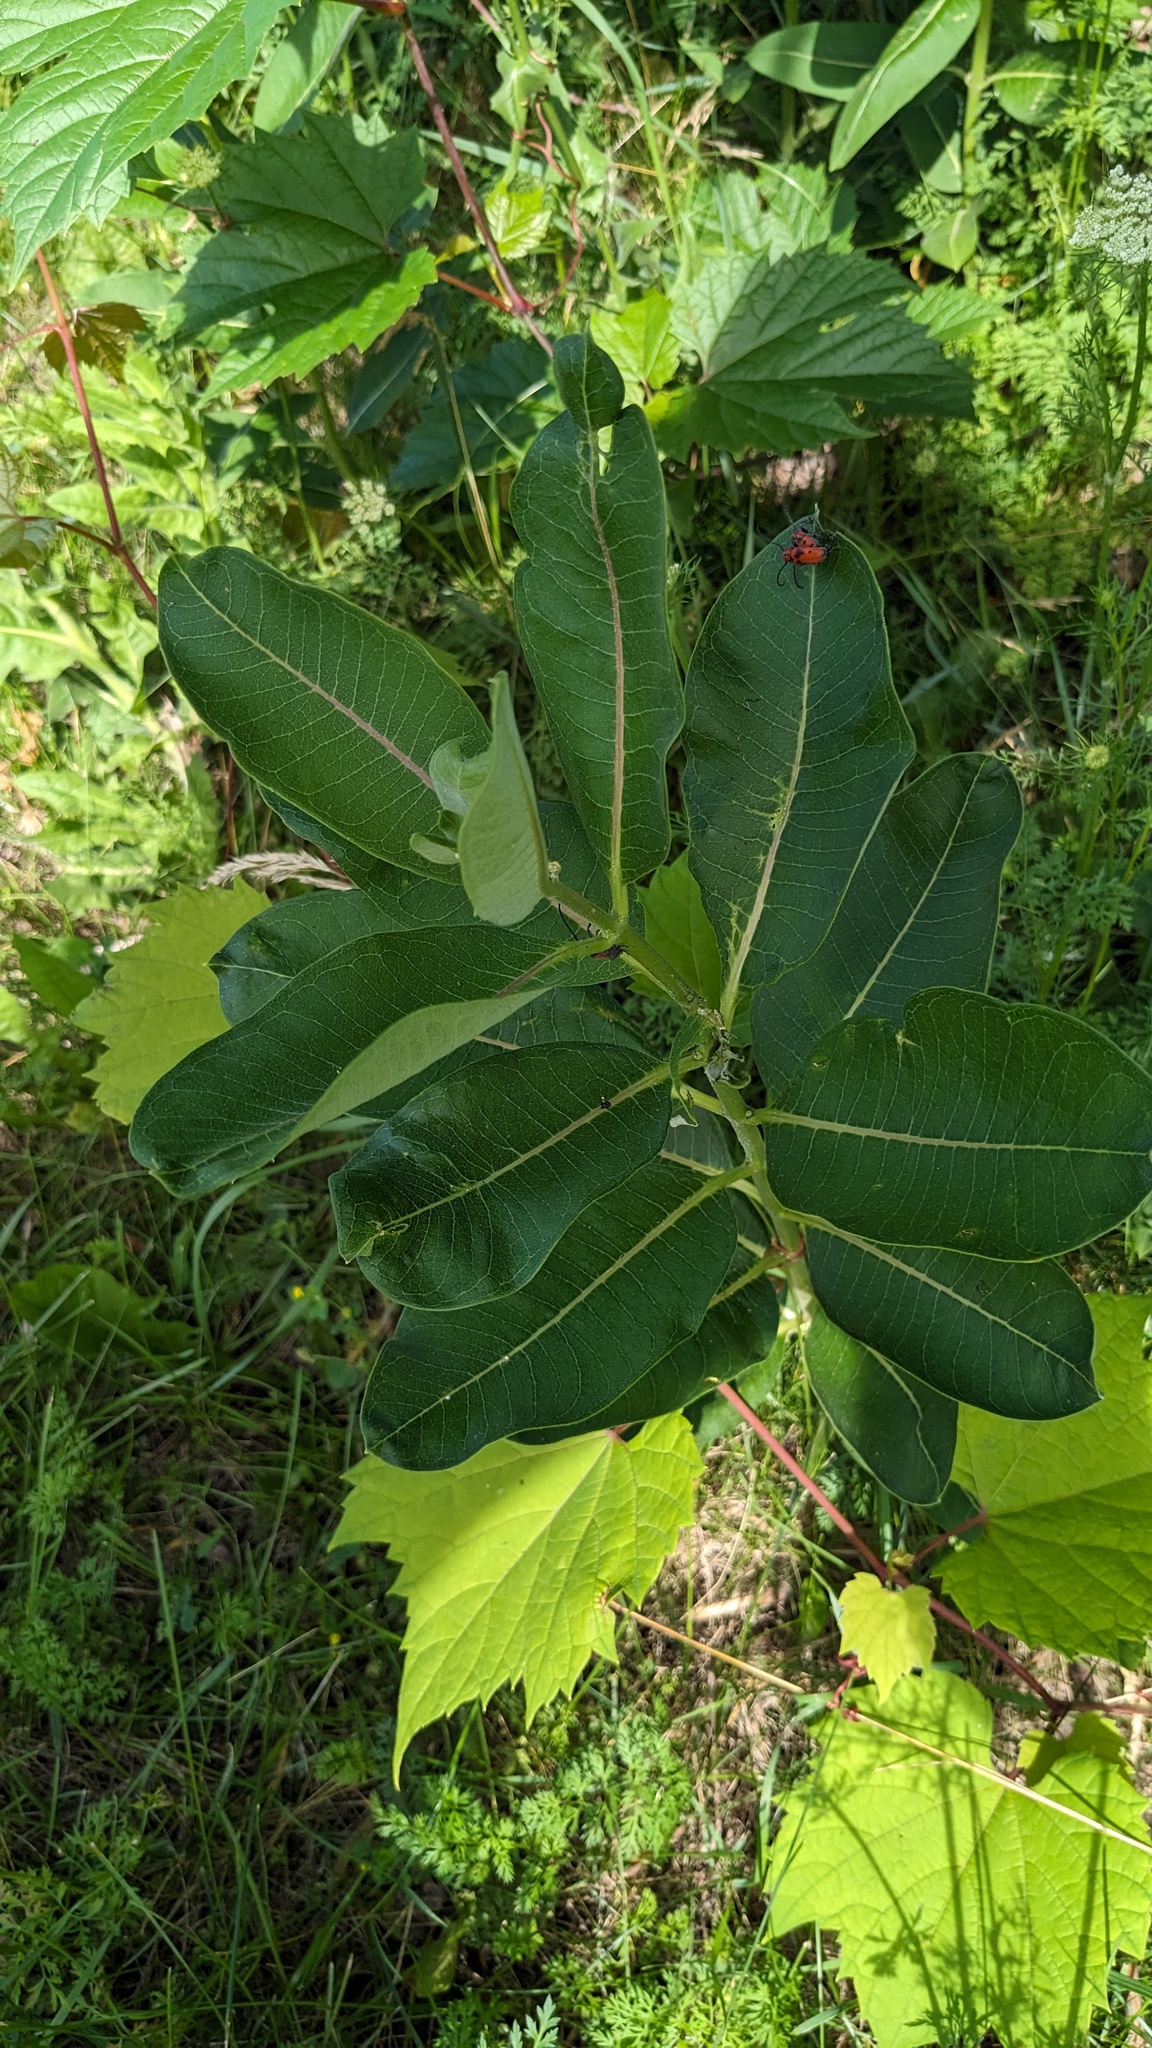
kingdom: Plantae
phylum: Tracheophyta
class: Magnoliopsida
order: Gentianales
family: Apocynaceae
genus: Asclepias
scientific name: Asclepias syriaca
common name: Common milkweed
